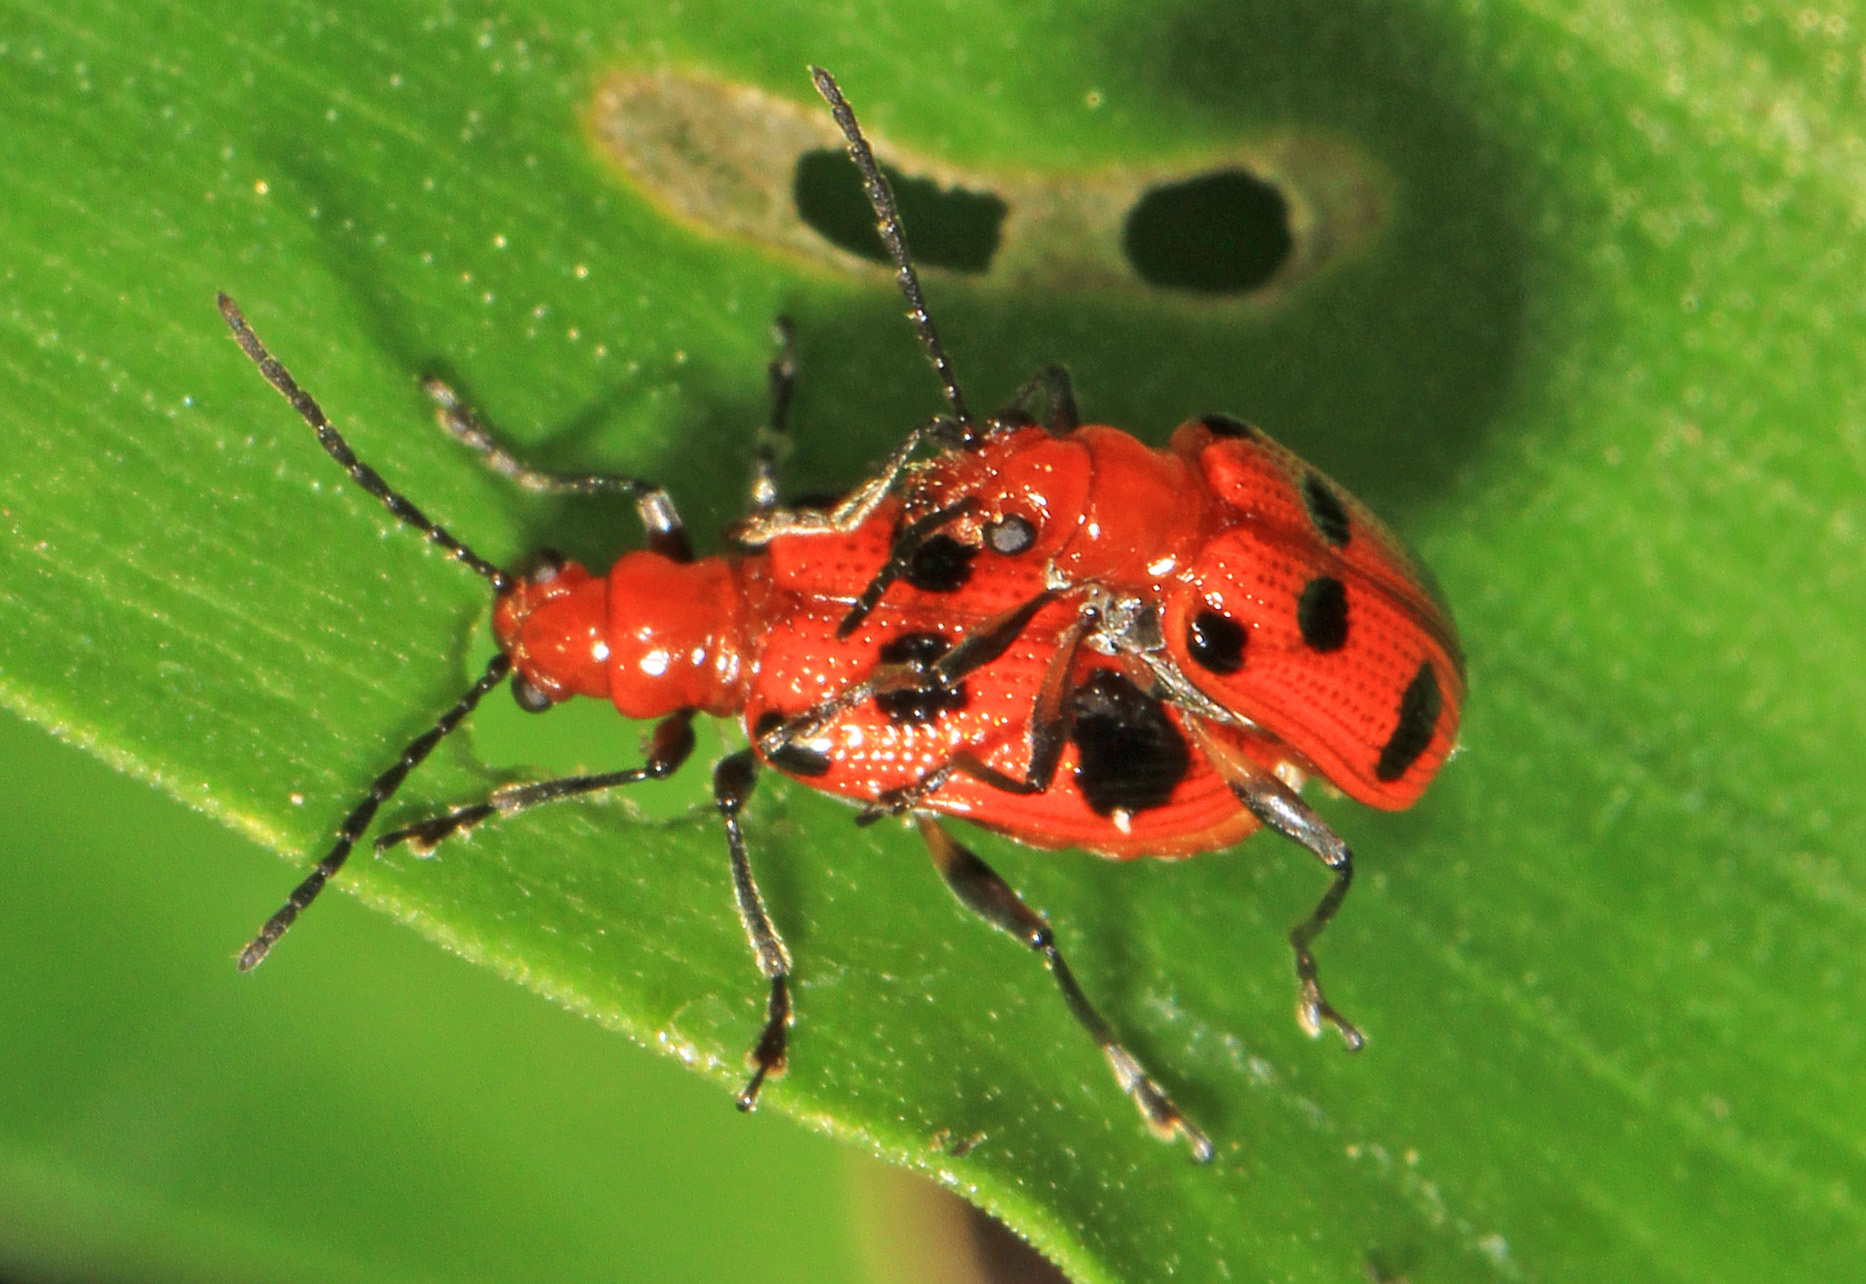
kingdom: Animalia
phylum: Arthropoda
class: Insecta
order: Coleoptera
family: Chrysomelidae
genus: Neolema
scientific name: Neolema sexpunctata
